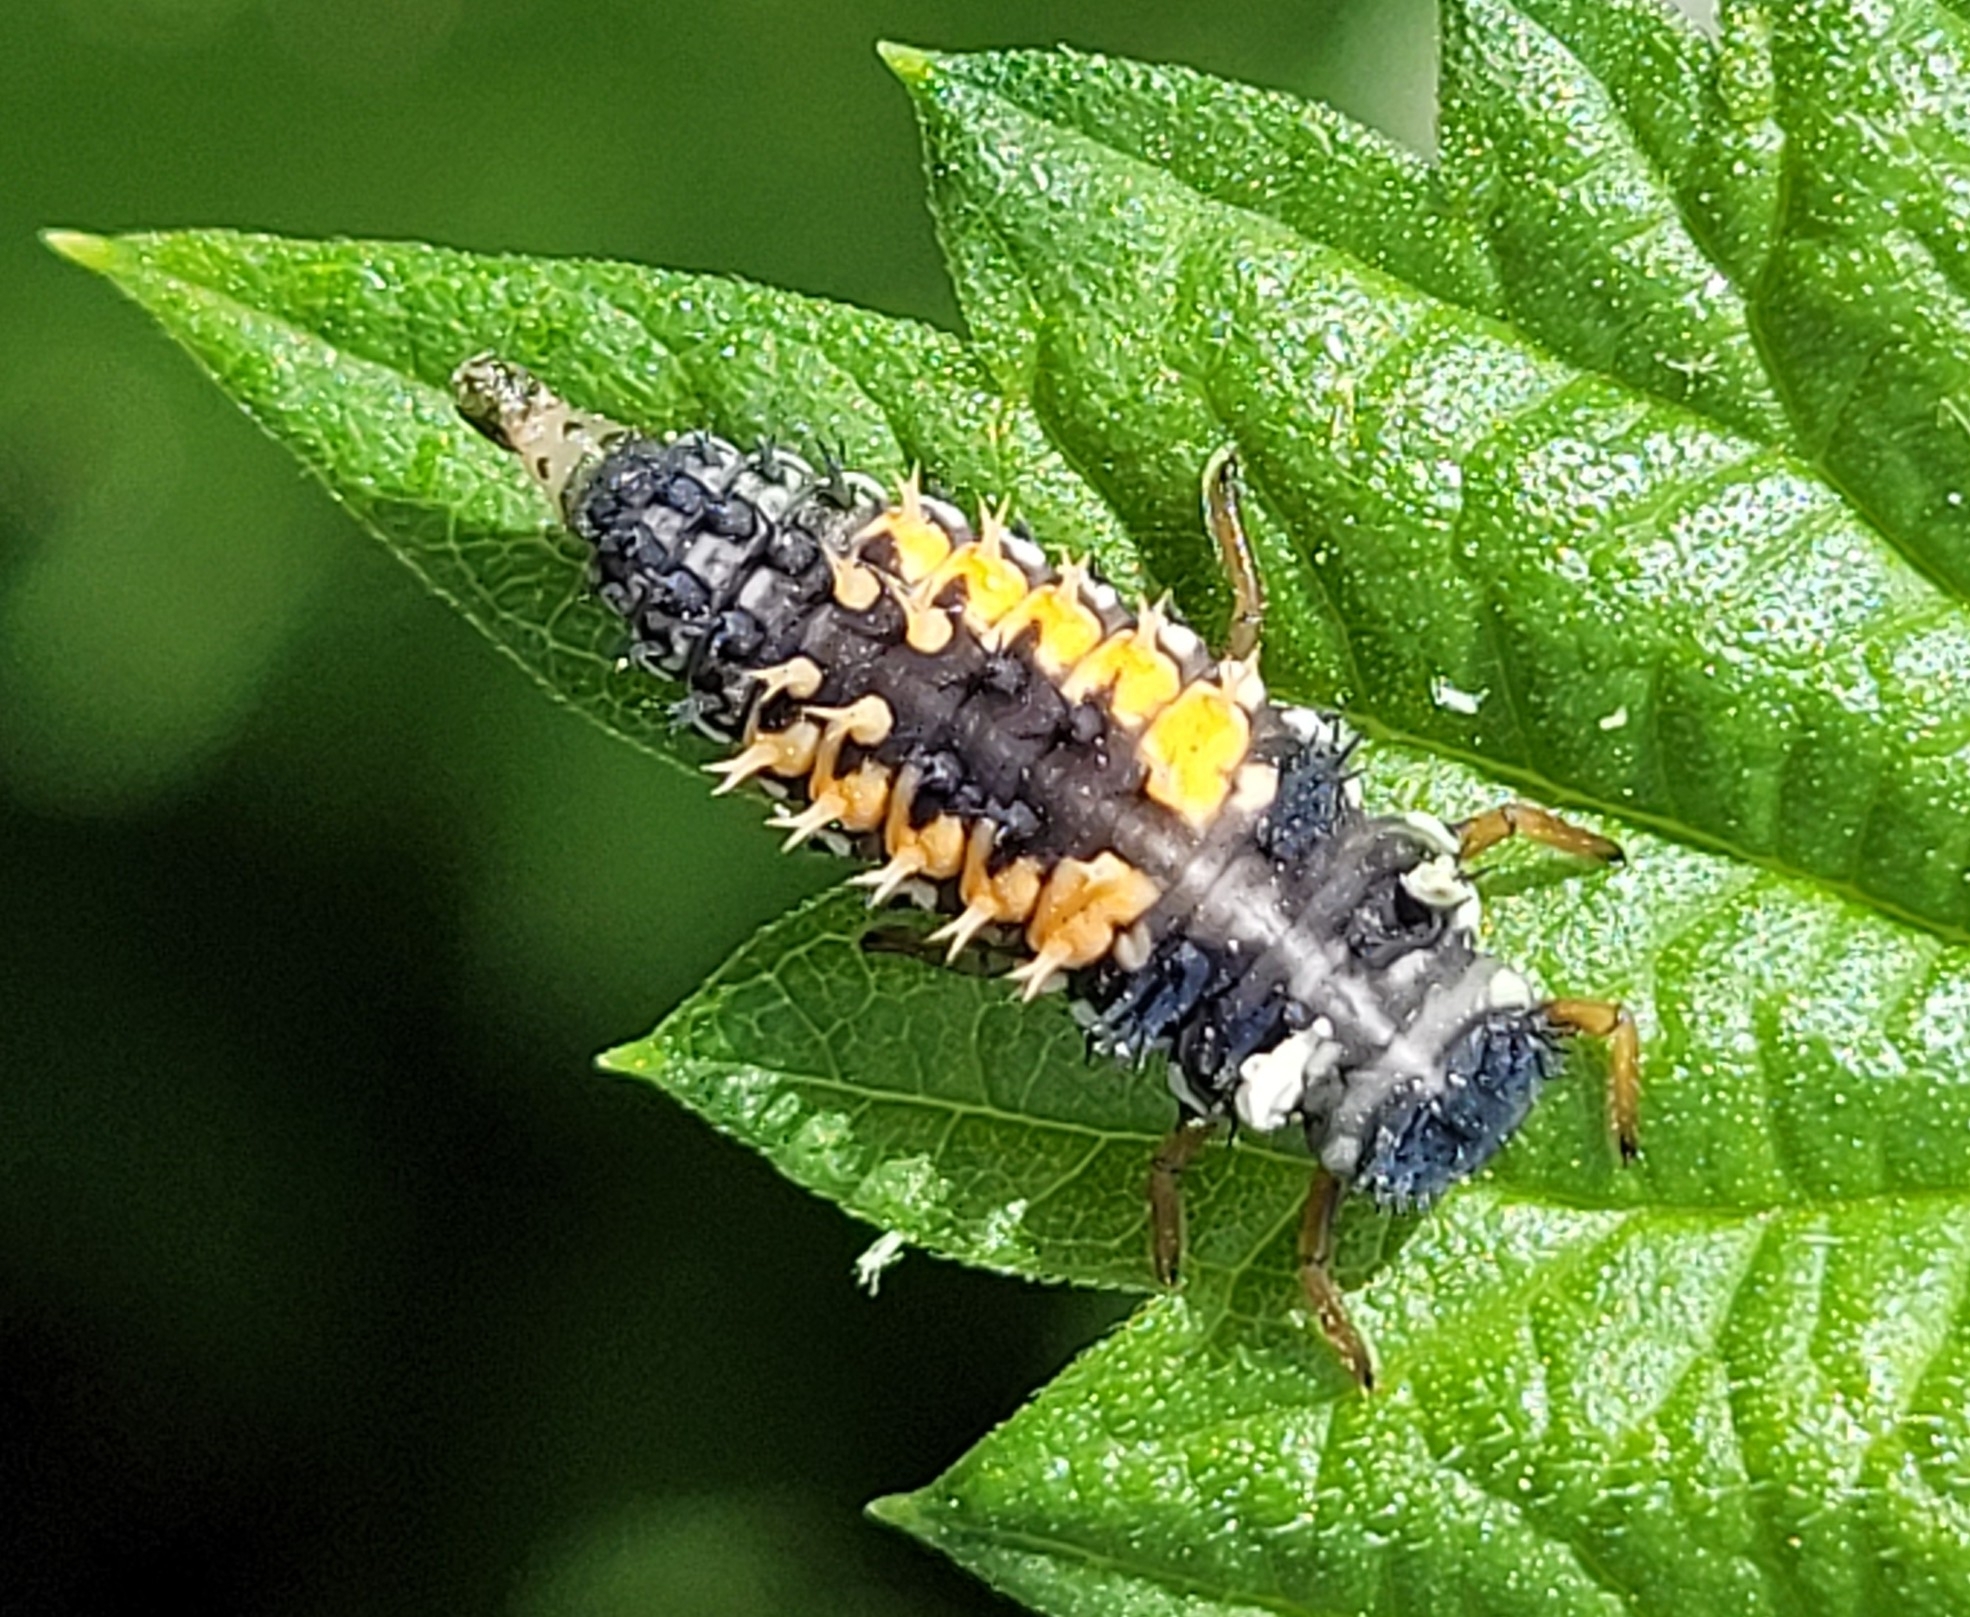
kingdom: Animalia
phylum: Arthropoda
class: Insecta
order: Coleoptera
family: Coccinellidae
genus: Harmonia
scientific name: Harmonia axyridis
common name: Harlequin ladybird
